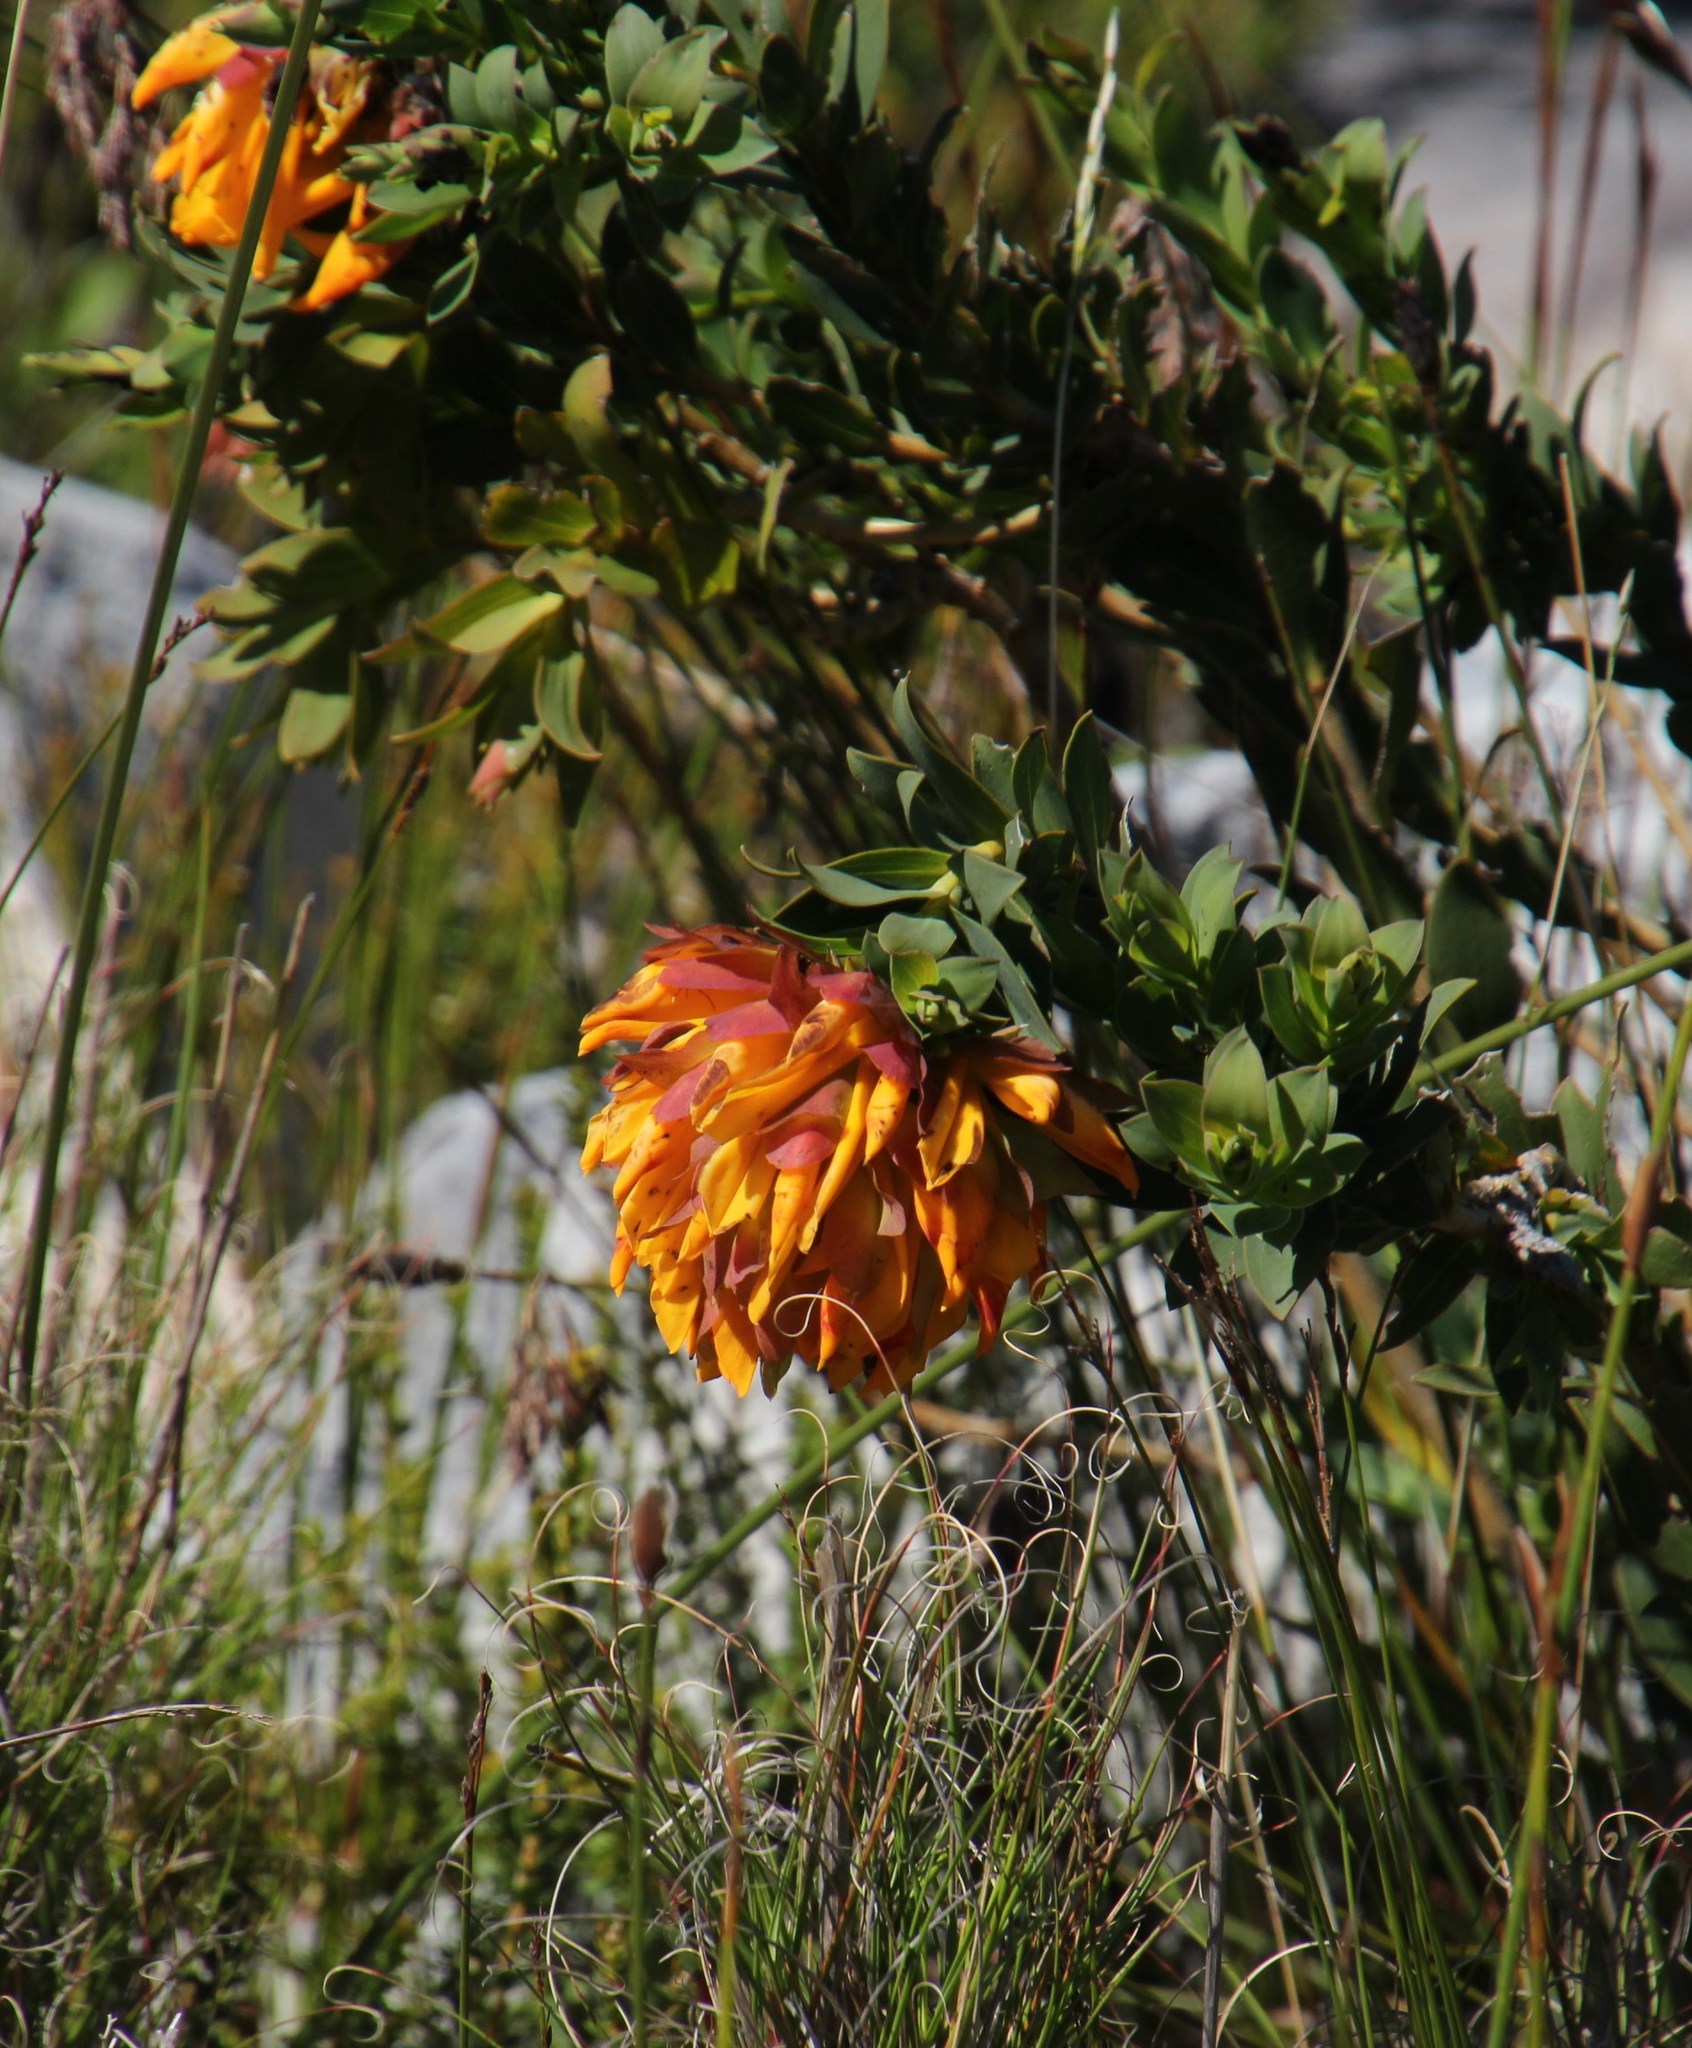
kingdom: Plantae
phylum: Tracheophyta
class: Magnoliopsida
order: Fabales
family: Fabaceae
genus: Liparia
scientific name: Liparia splendens
